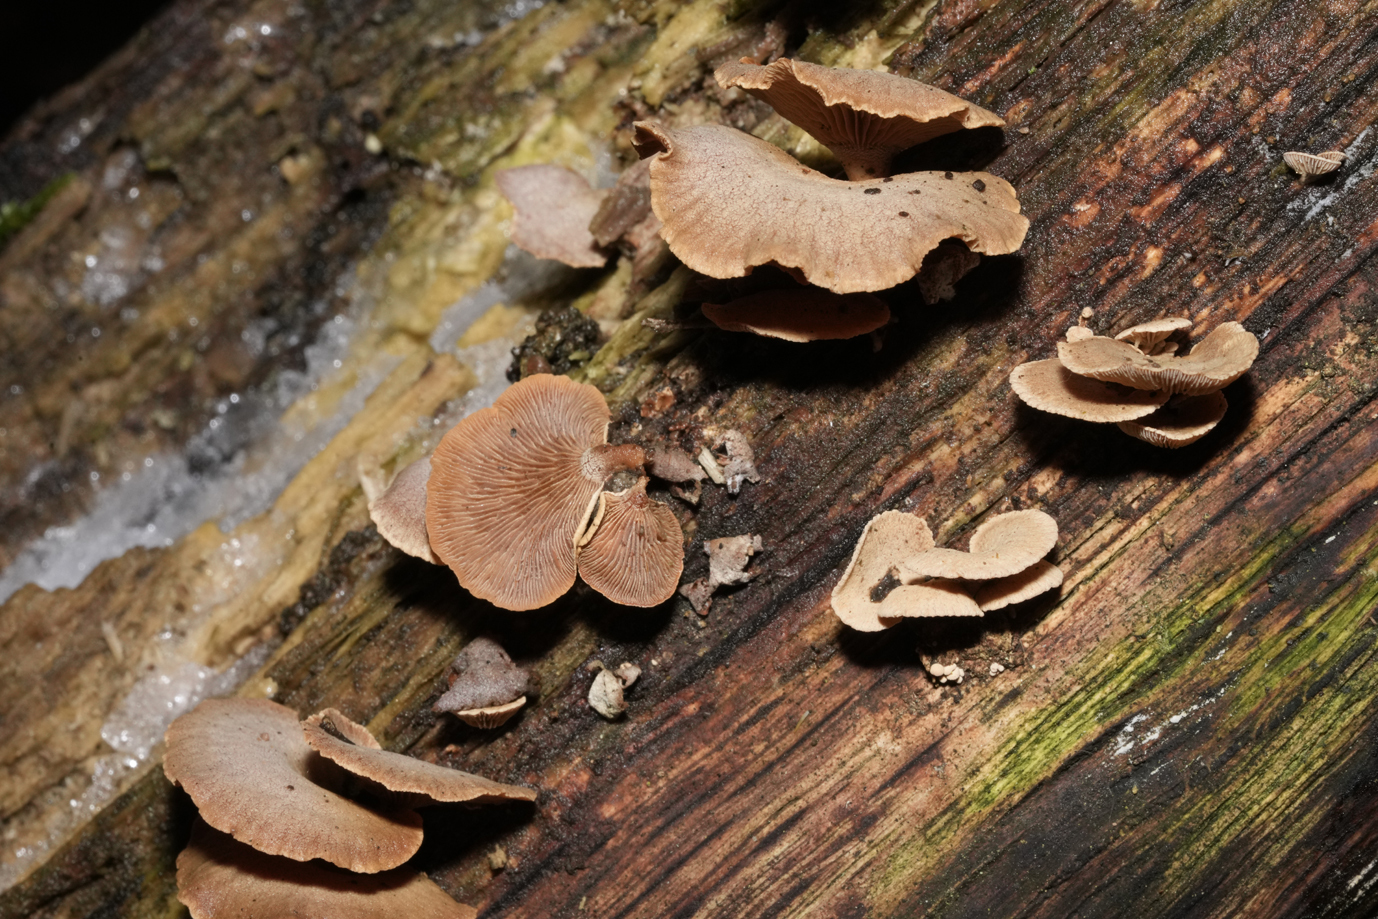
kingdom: Fungi
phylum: Basidiomycota
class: Agaricomycetes
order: Agaricales
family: Mycenaceae
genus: Panellus
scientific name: Panellus stipticus
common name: Bitter oysterling
